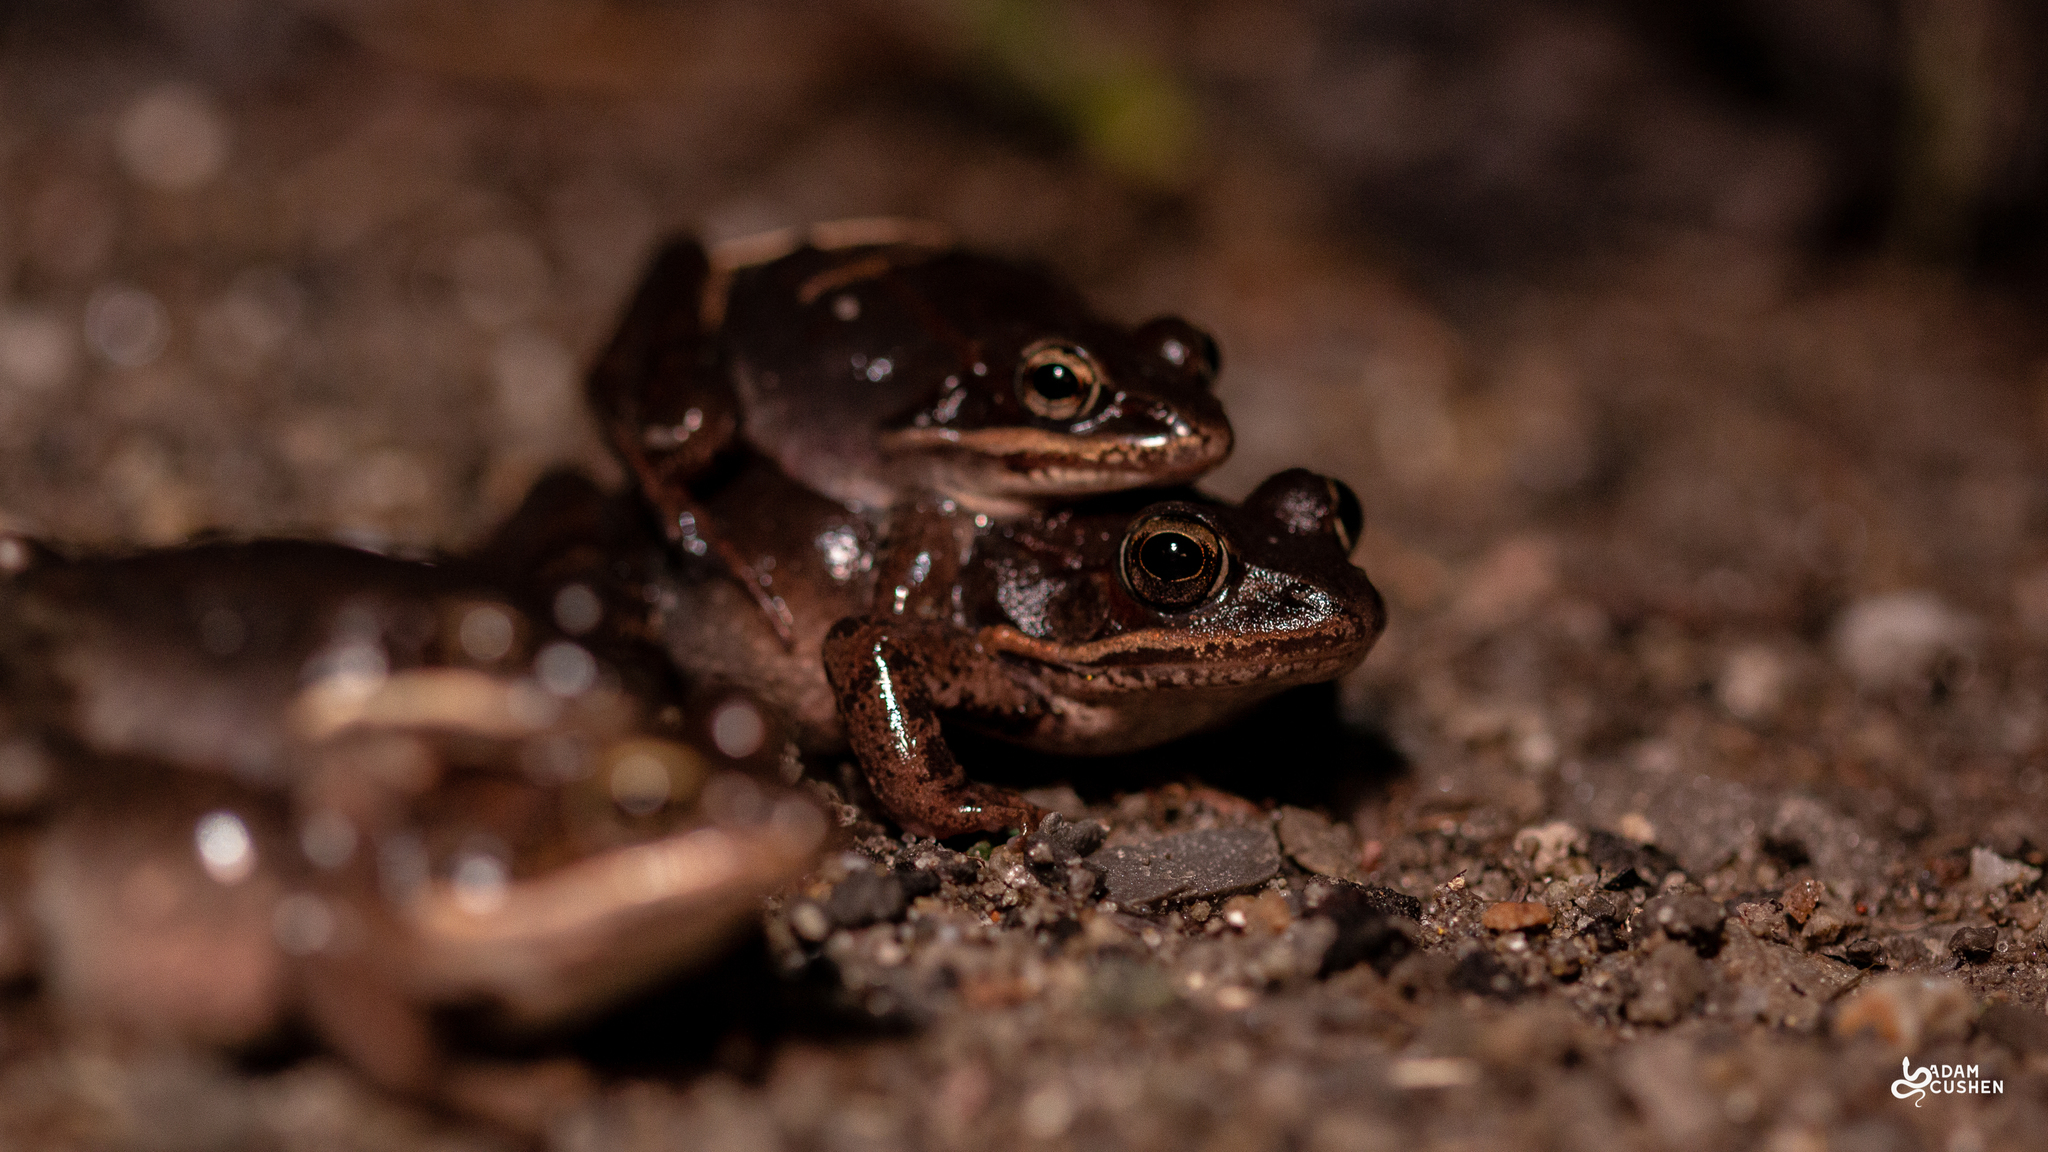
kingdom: Animalia
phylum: Chordata
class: Amphibia
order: Anura
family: Ranidae
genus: Lithobates
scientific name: Lithobates sylvaticus
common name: Wood frog
